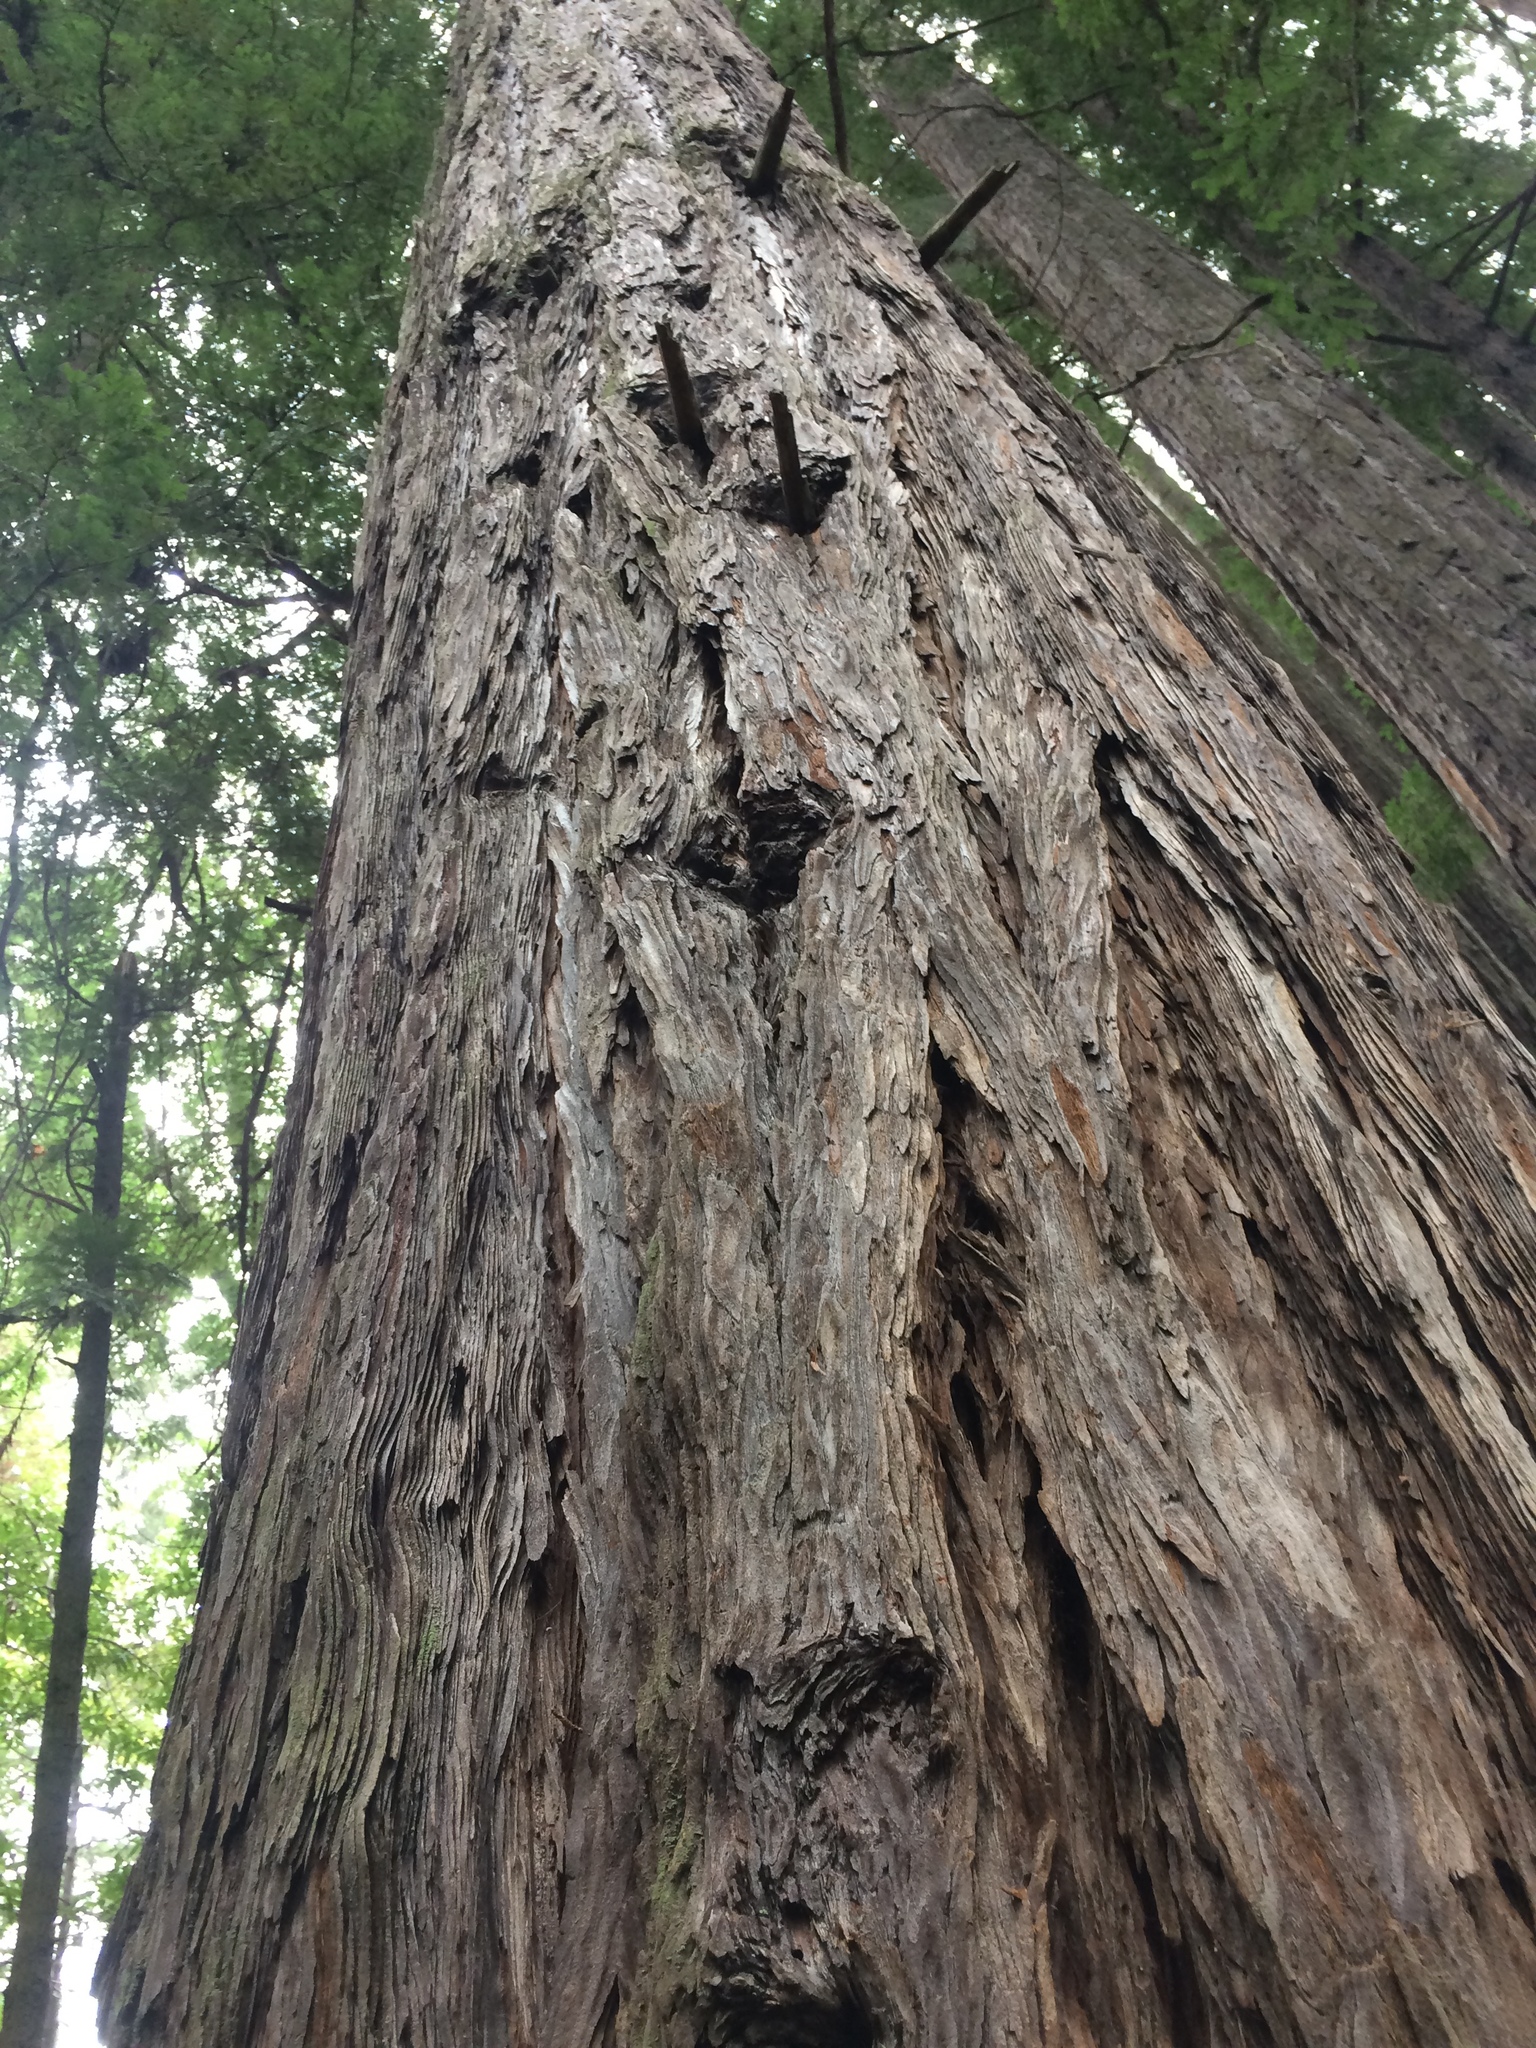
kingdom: Plantae
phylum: Tracheophyta
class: Pinopsida
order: Pinales
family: Cupressaceae
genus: Sequoia
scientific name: Sequoia sempervirens
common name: Coast redwood
